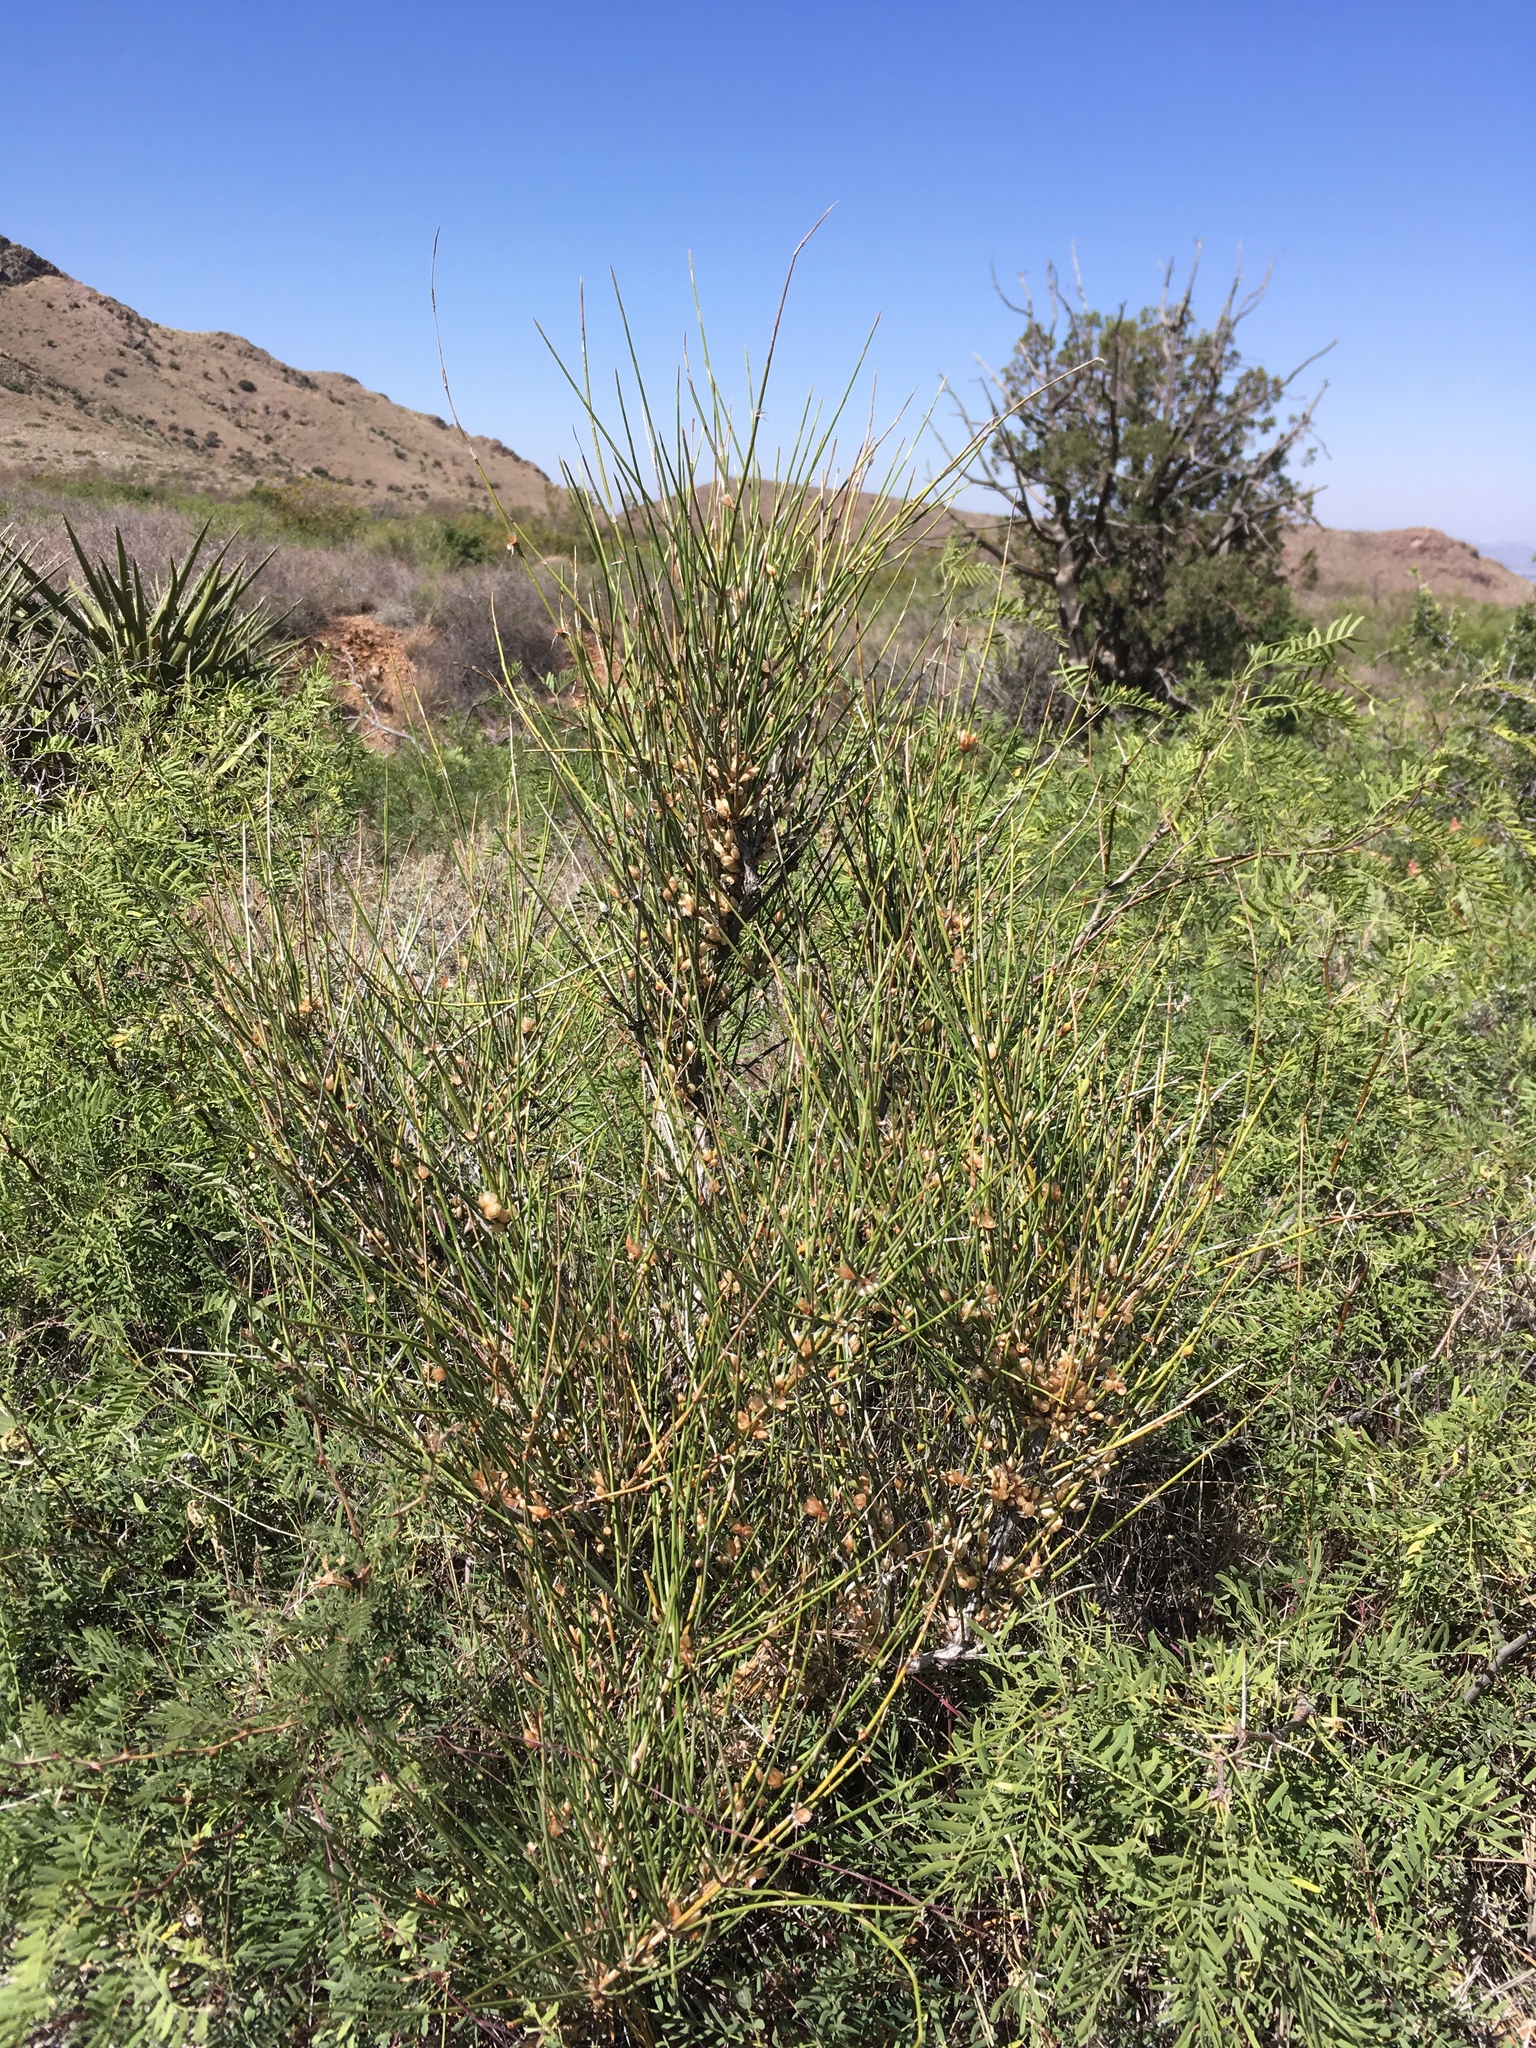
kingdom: Plantae
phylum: Tracheophyta
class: Gnetopsida
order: Ephedrales
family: Ephedraceae
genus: Ephedra
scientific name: Ephedra trifurca
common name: Mexican-tea
